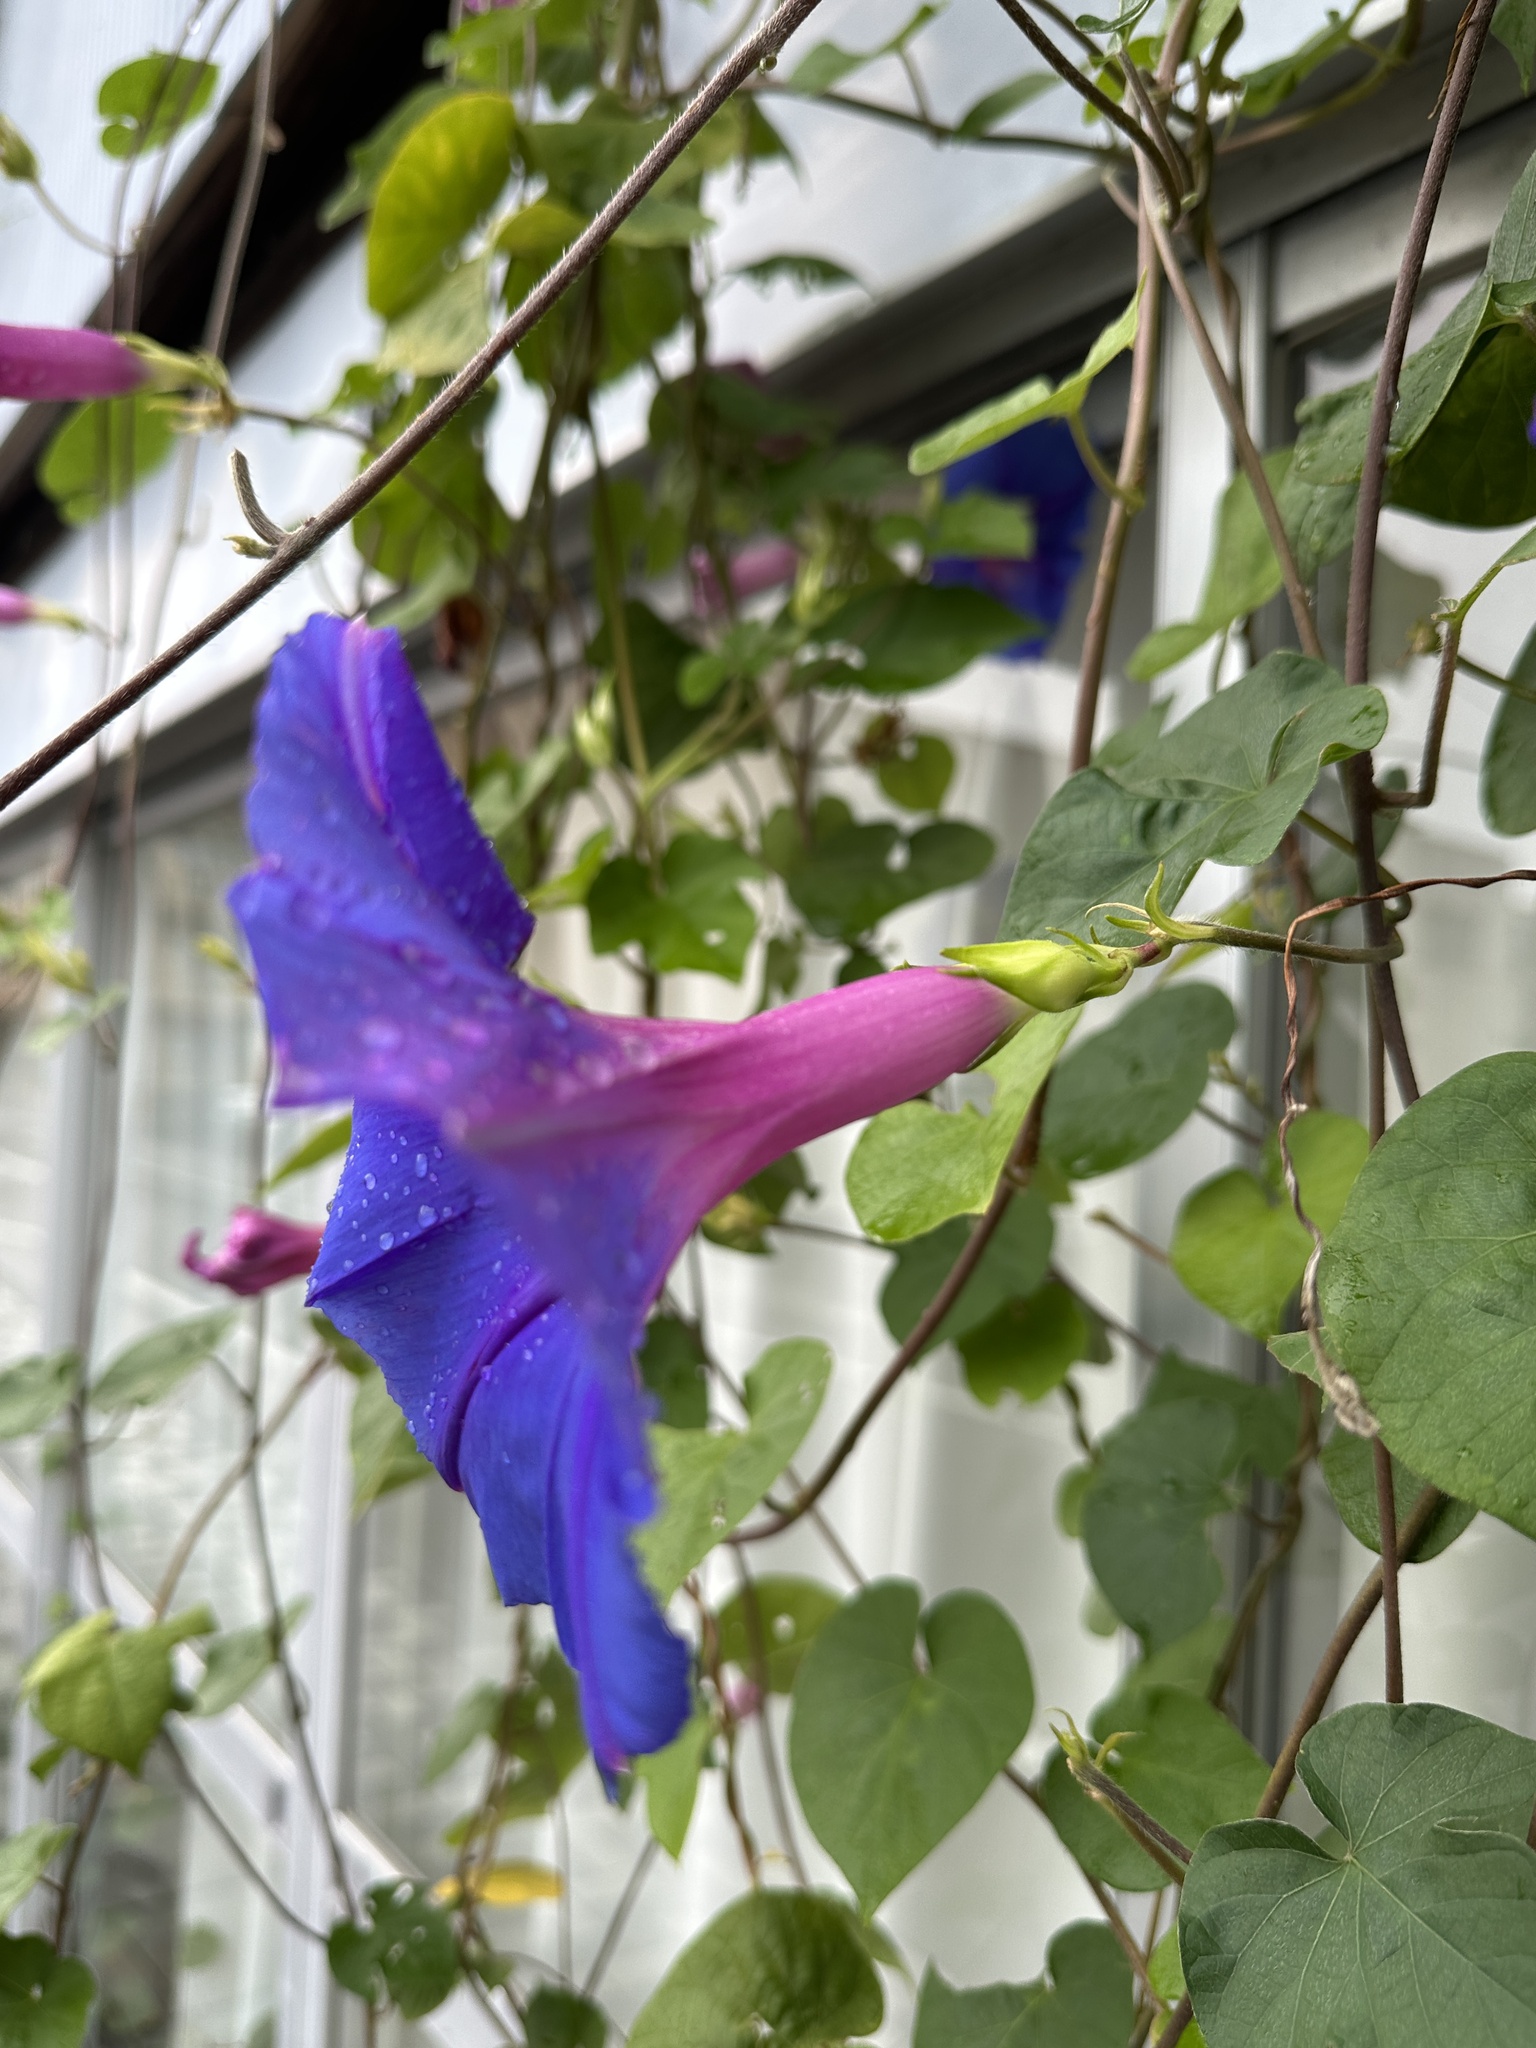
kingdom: Plantae
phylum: Tracheophyta
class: Magnoliopsida
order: Solanales
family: Convolvulaceae
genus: Ipomoea
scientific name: Ipomoea indica
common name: Blue dawnflower
